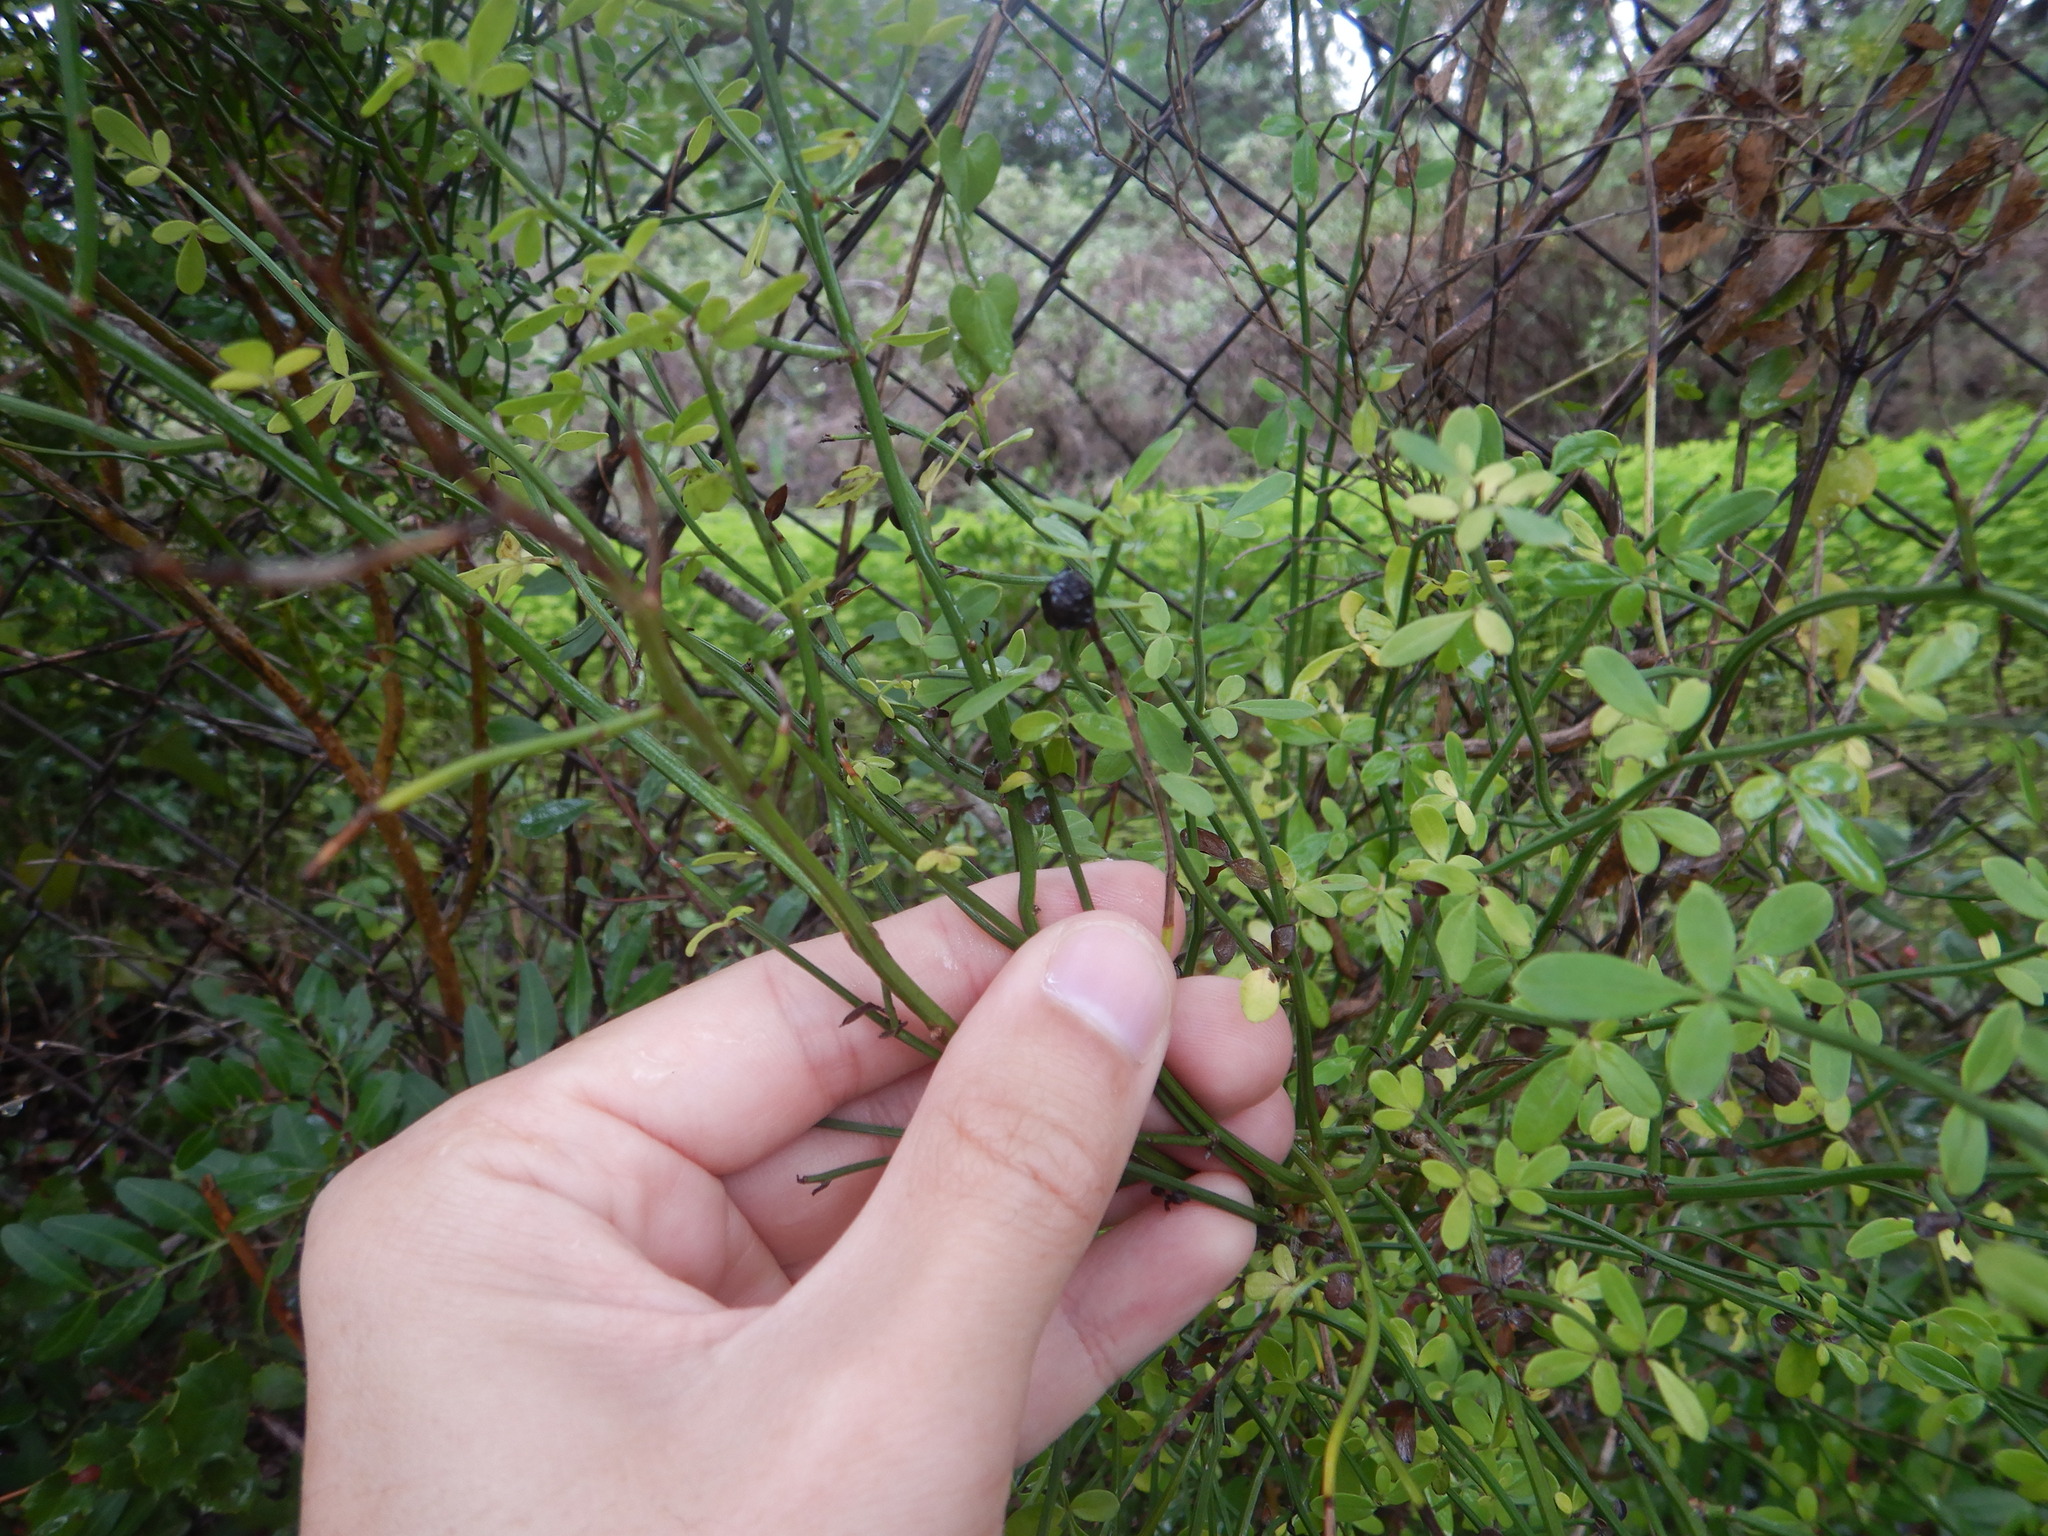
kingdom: Plantae
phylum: Tracheophyta
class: Magnoliopsida
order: Lamiales
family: Oleaceae
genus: Chrysojasminum
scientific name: Chrysojasminum fruticans
